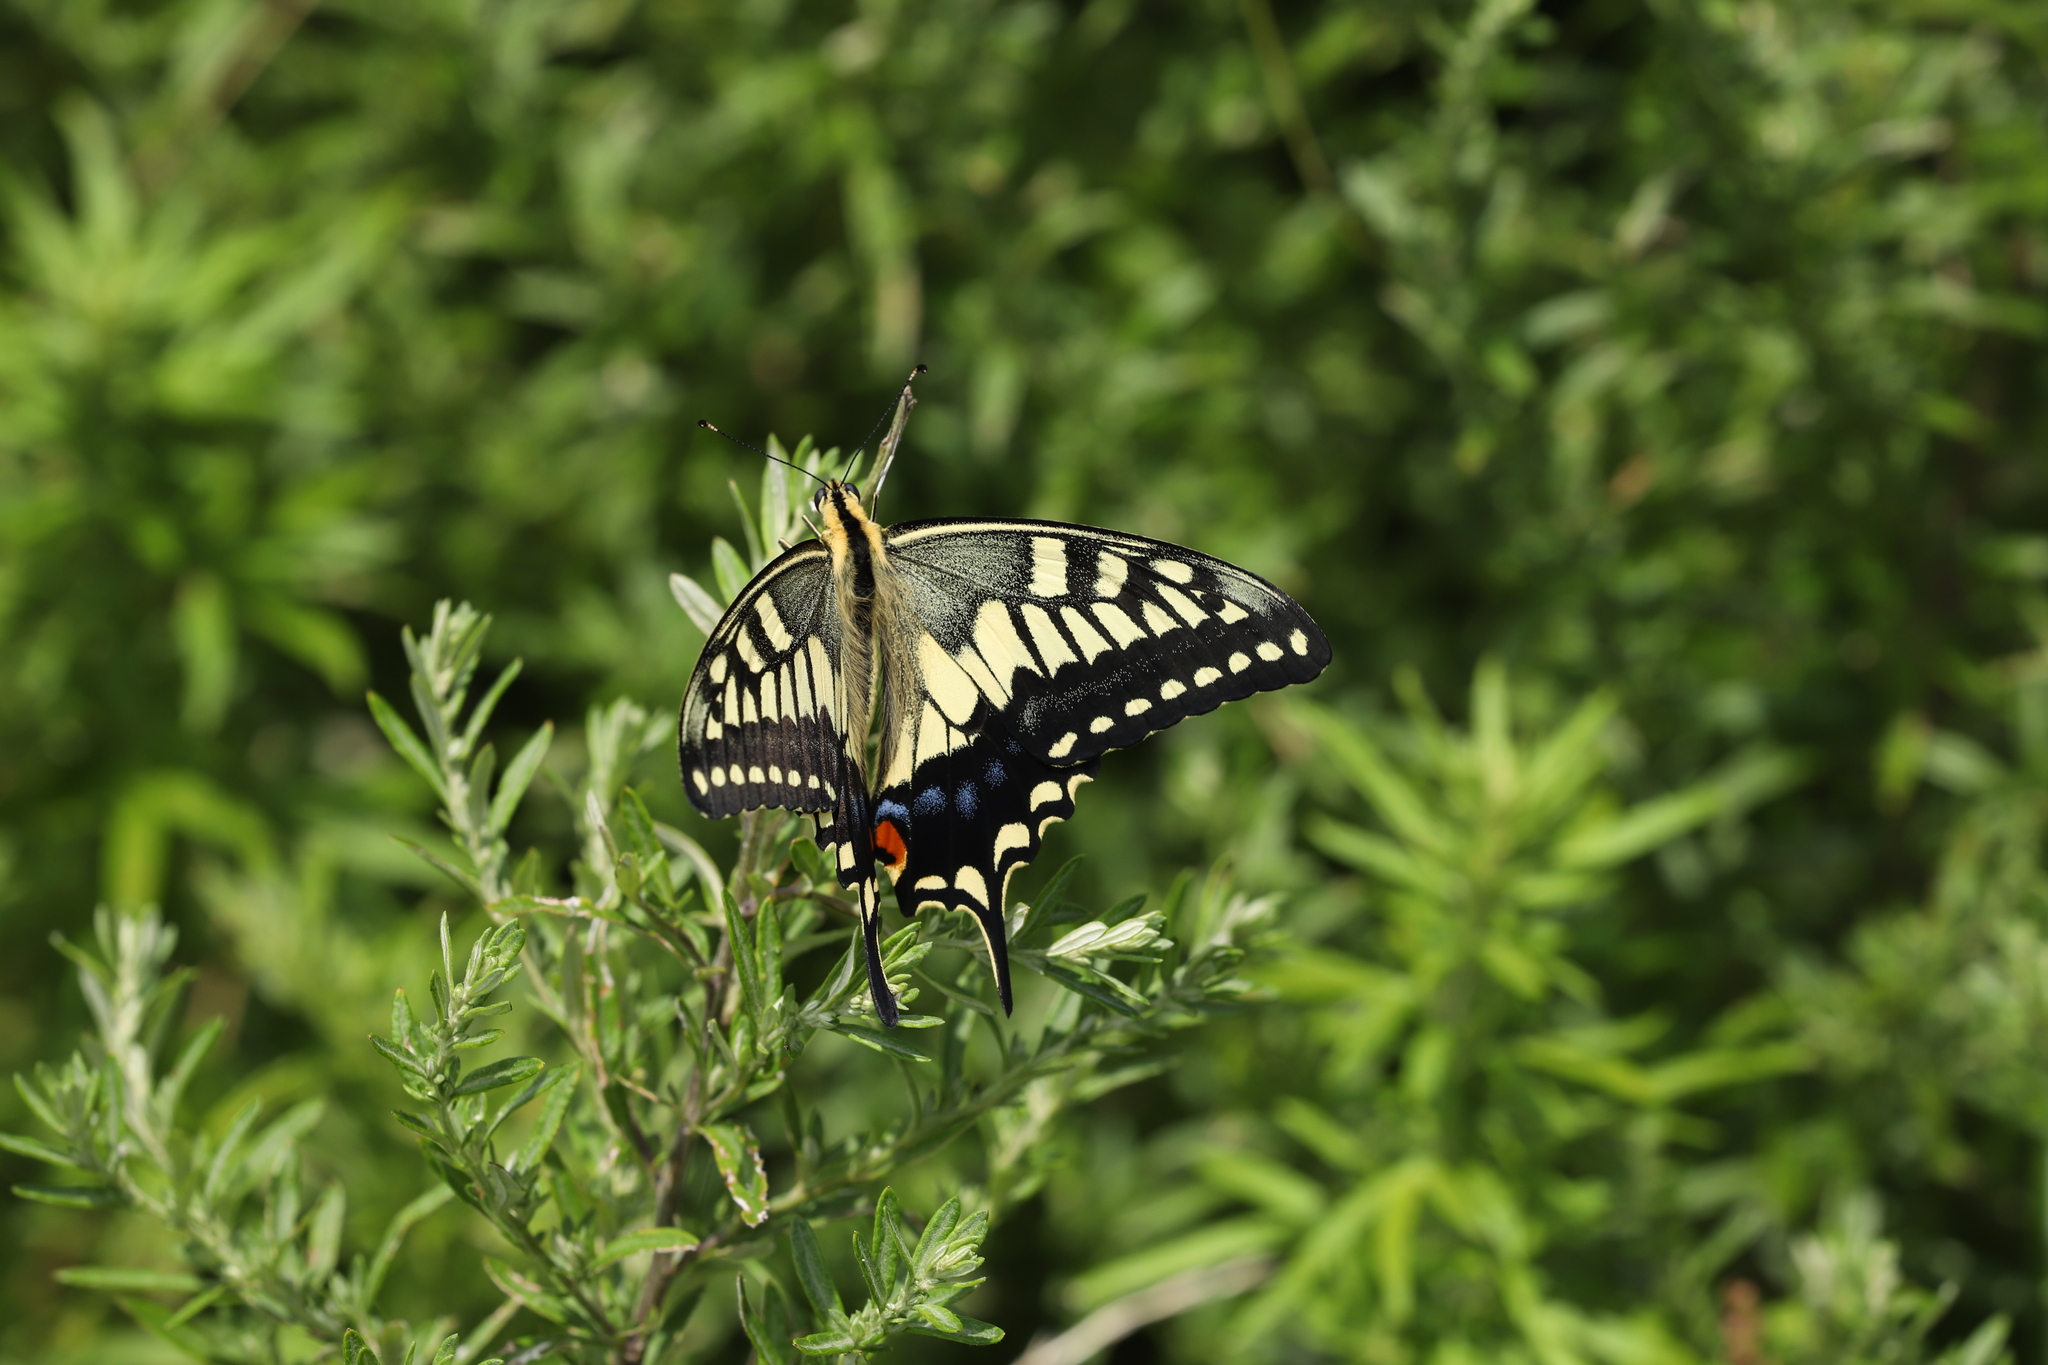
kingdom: Animalia
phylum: Arthropoda
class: Insecta
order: Lepidoptera
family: Papilionidae
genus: Papilio
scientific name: Papilio machaon
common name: Swallowtail
